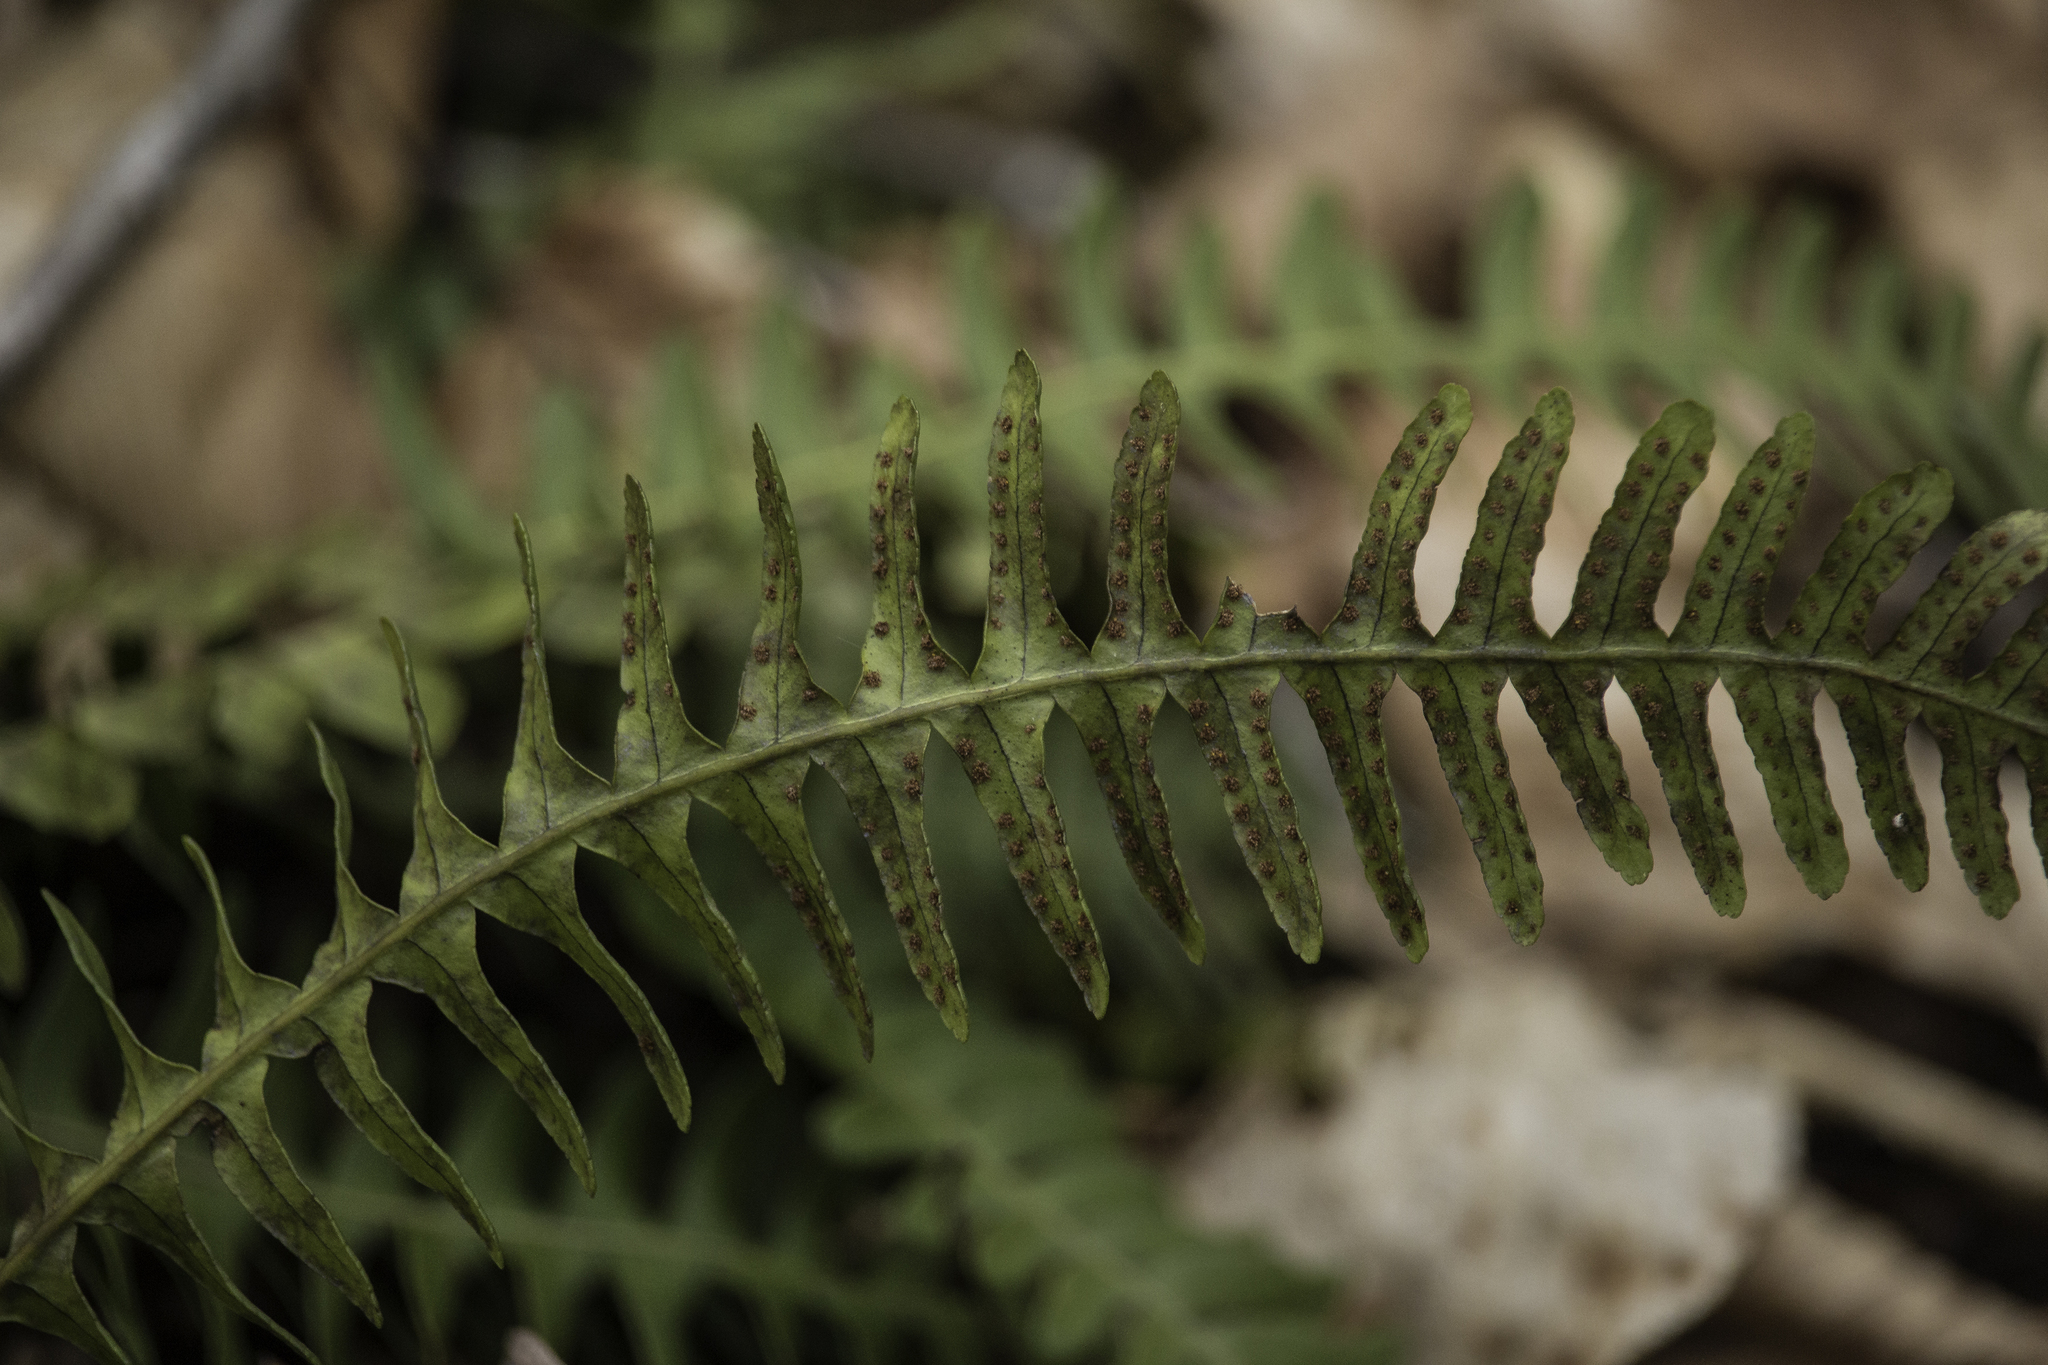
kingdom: Plantae
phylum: Tracheophyta
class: Polypodiopsida
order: Polypodiales
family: Polypodiaceae
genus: Polypodium
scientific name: Polypodium virginianum
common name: American wall fern
